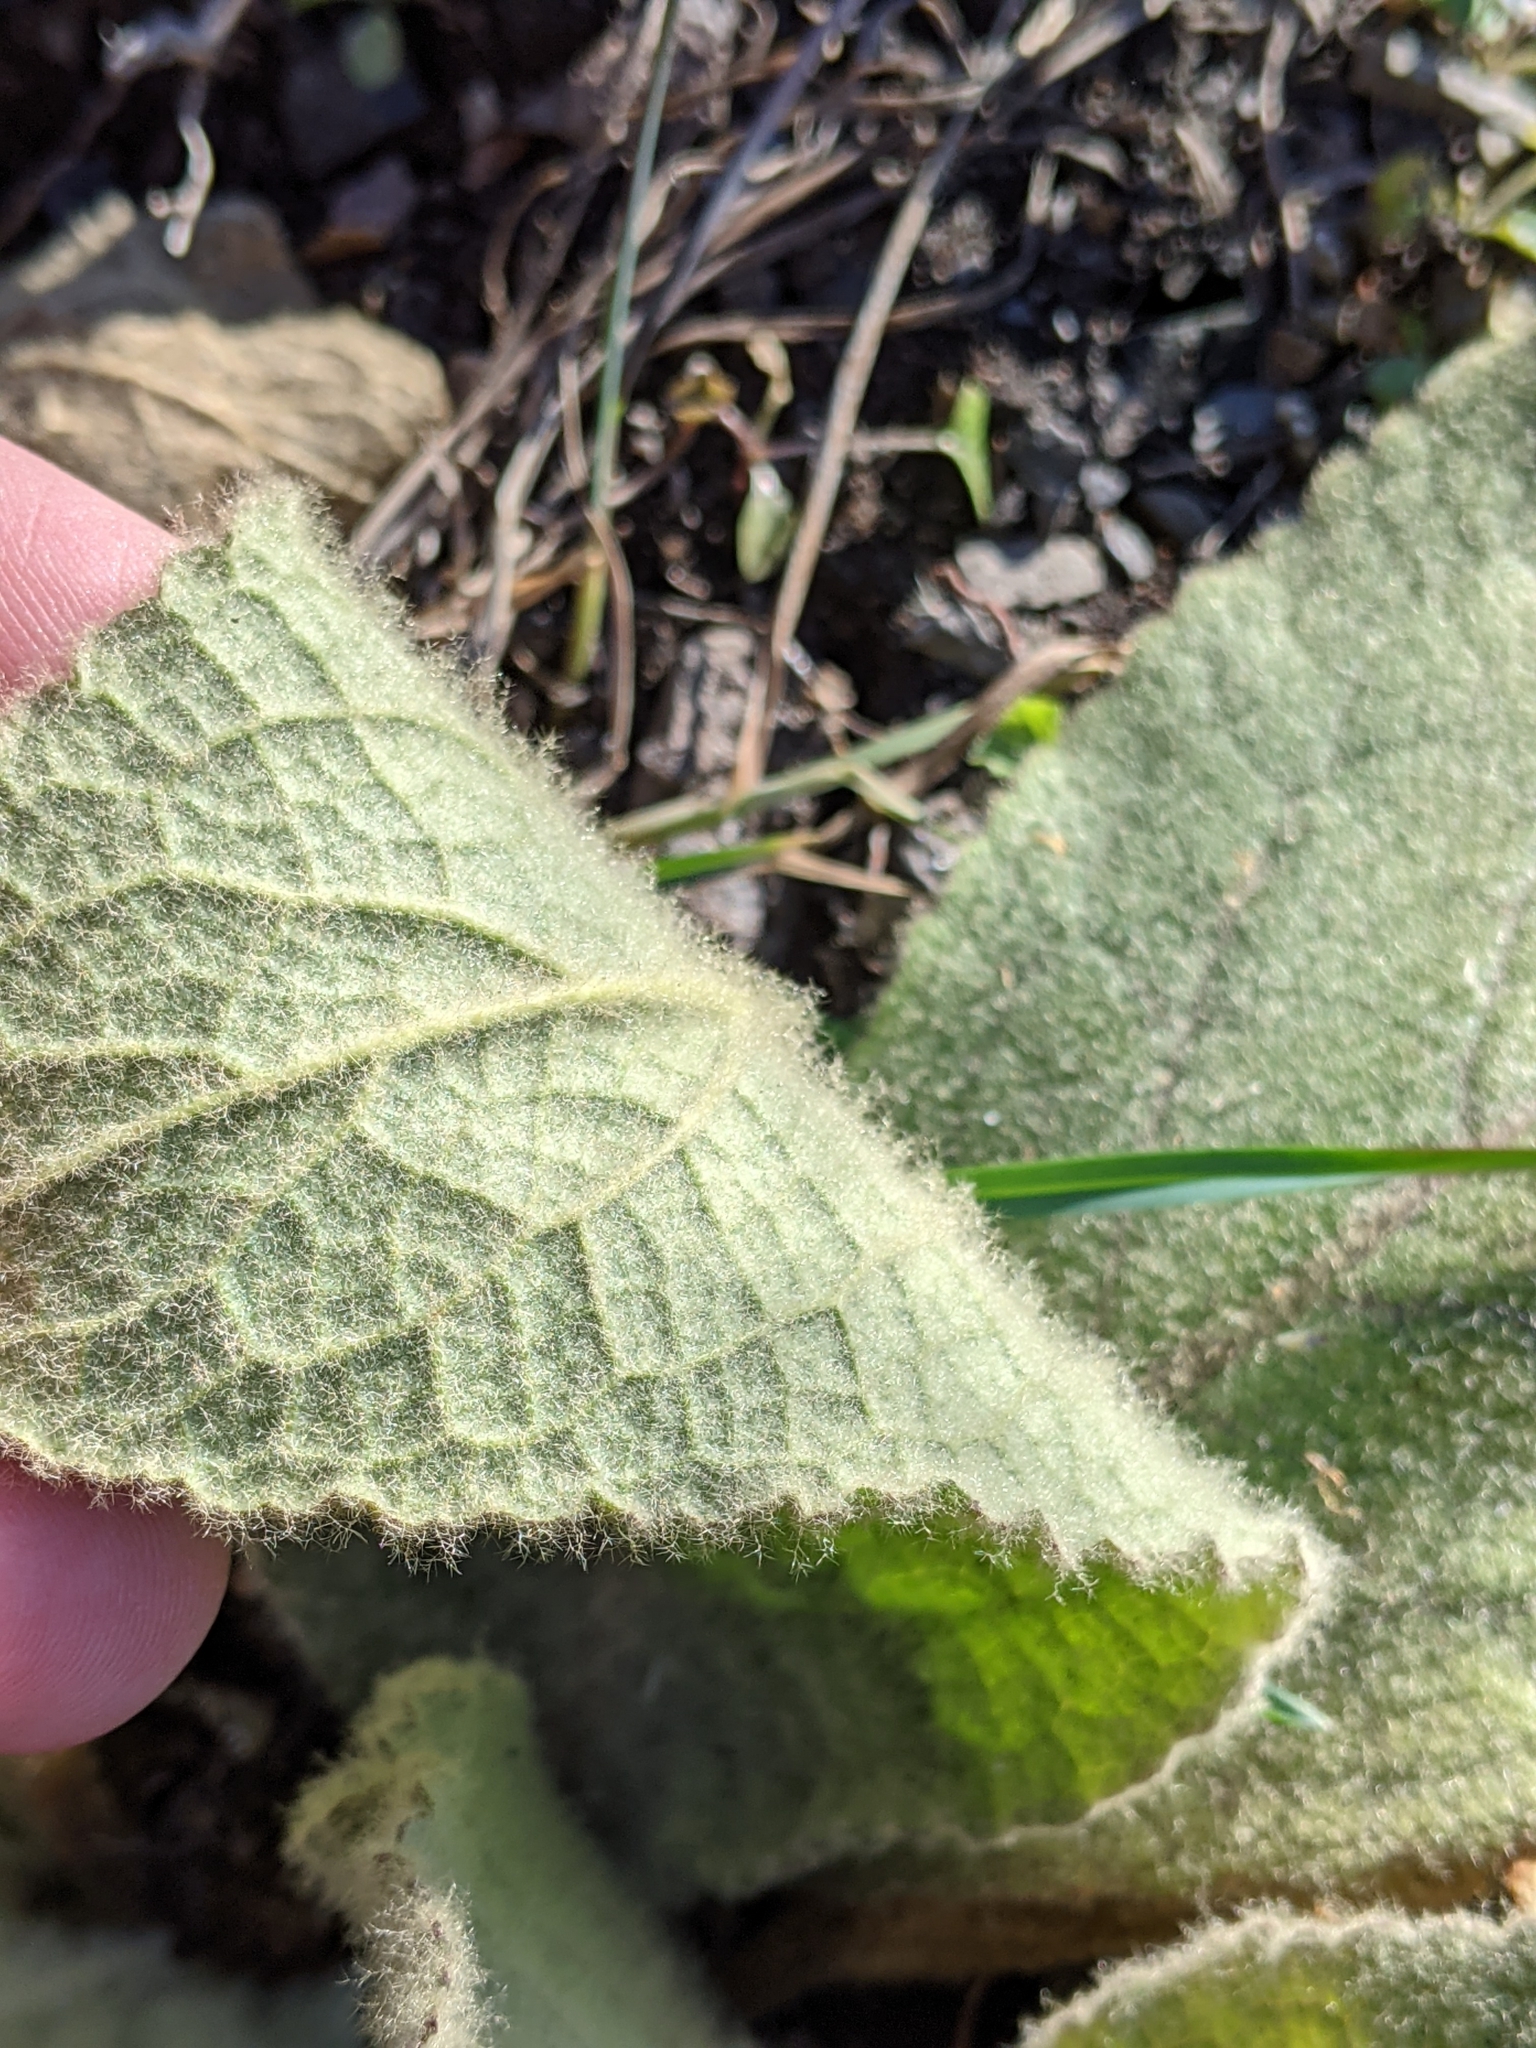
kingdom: Plantae
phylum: Tracheophyta
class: Magnoliopsida
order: Lamiales
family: Scrophulariaceae
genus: Verbascum
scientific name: Verbascum thapsus
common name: Common mullein
